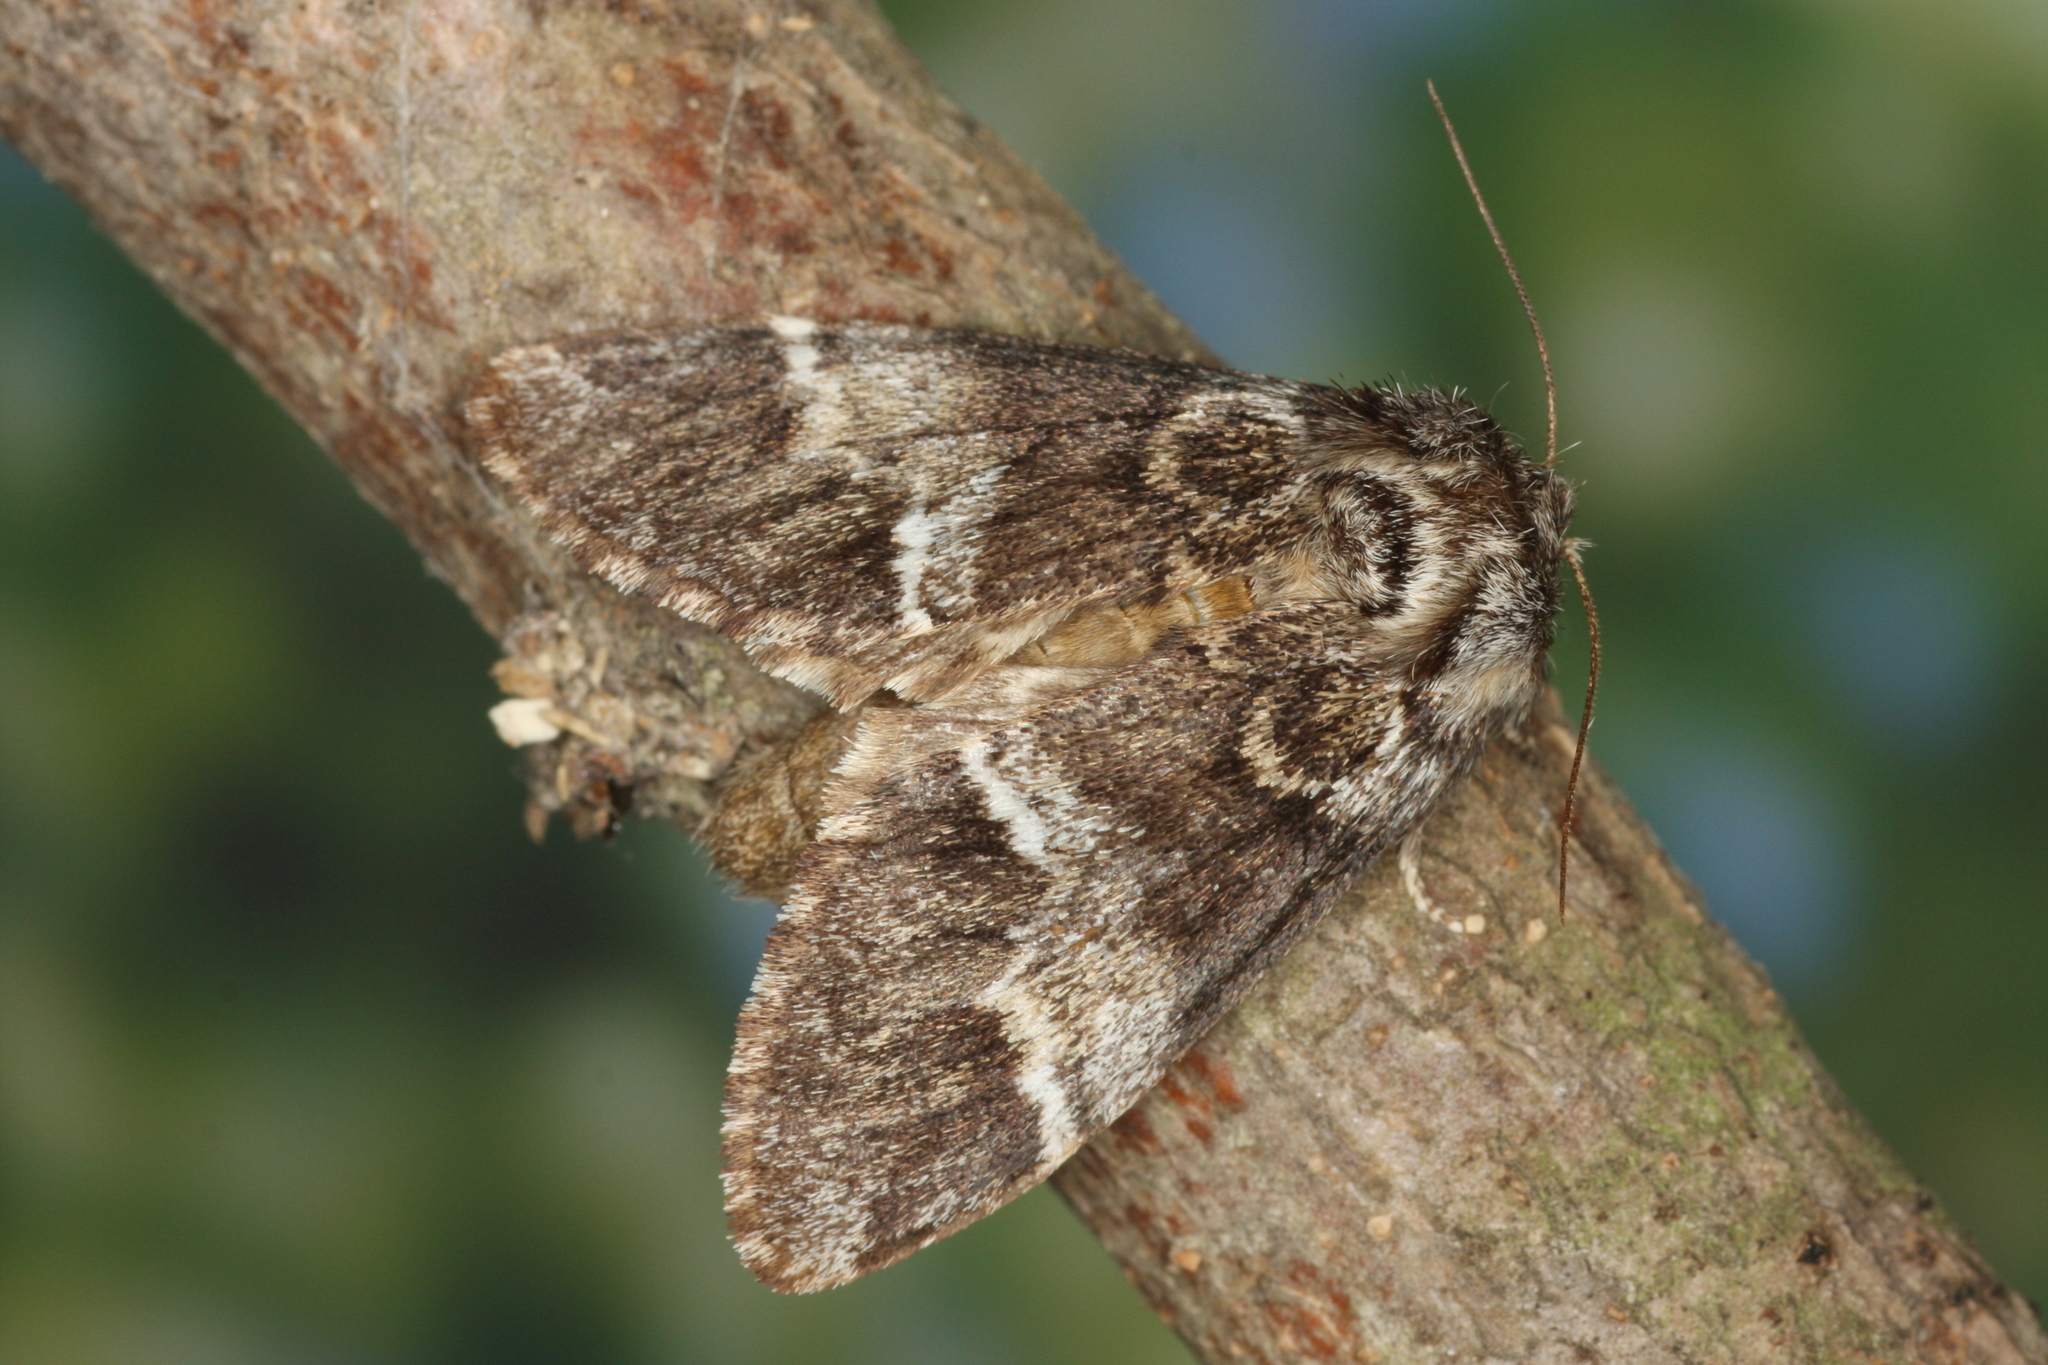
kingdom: Animalia
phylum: Arthropoda
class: Insecta
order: Lepidoptera
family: Notodontidae
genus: Drymonia
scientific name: Drymonia dodonaea
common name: Marbled brown
